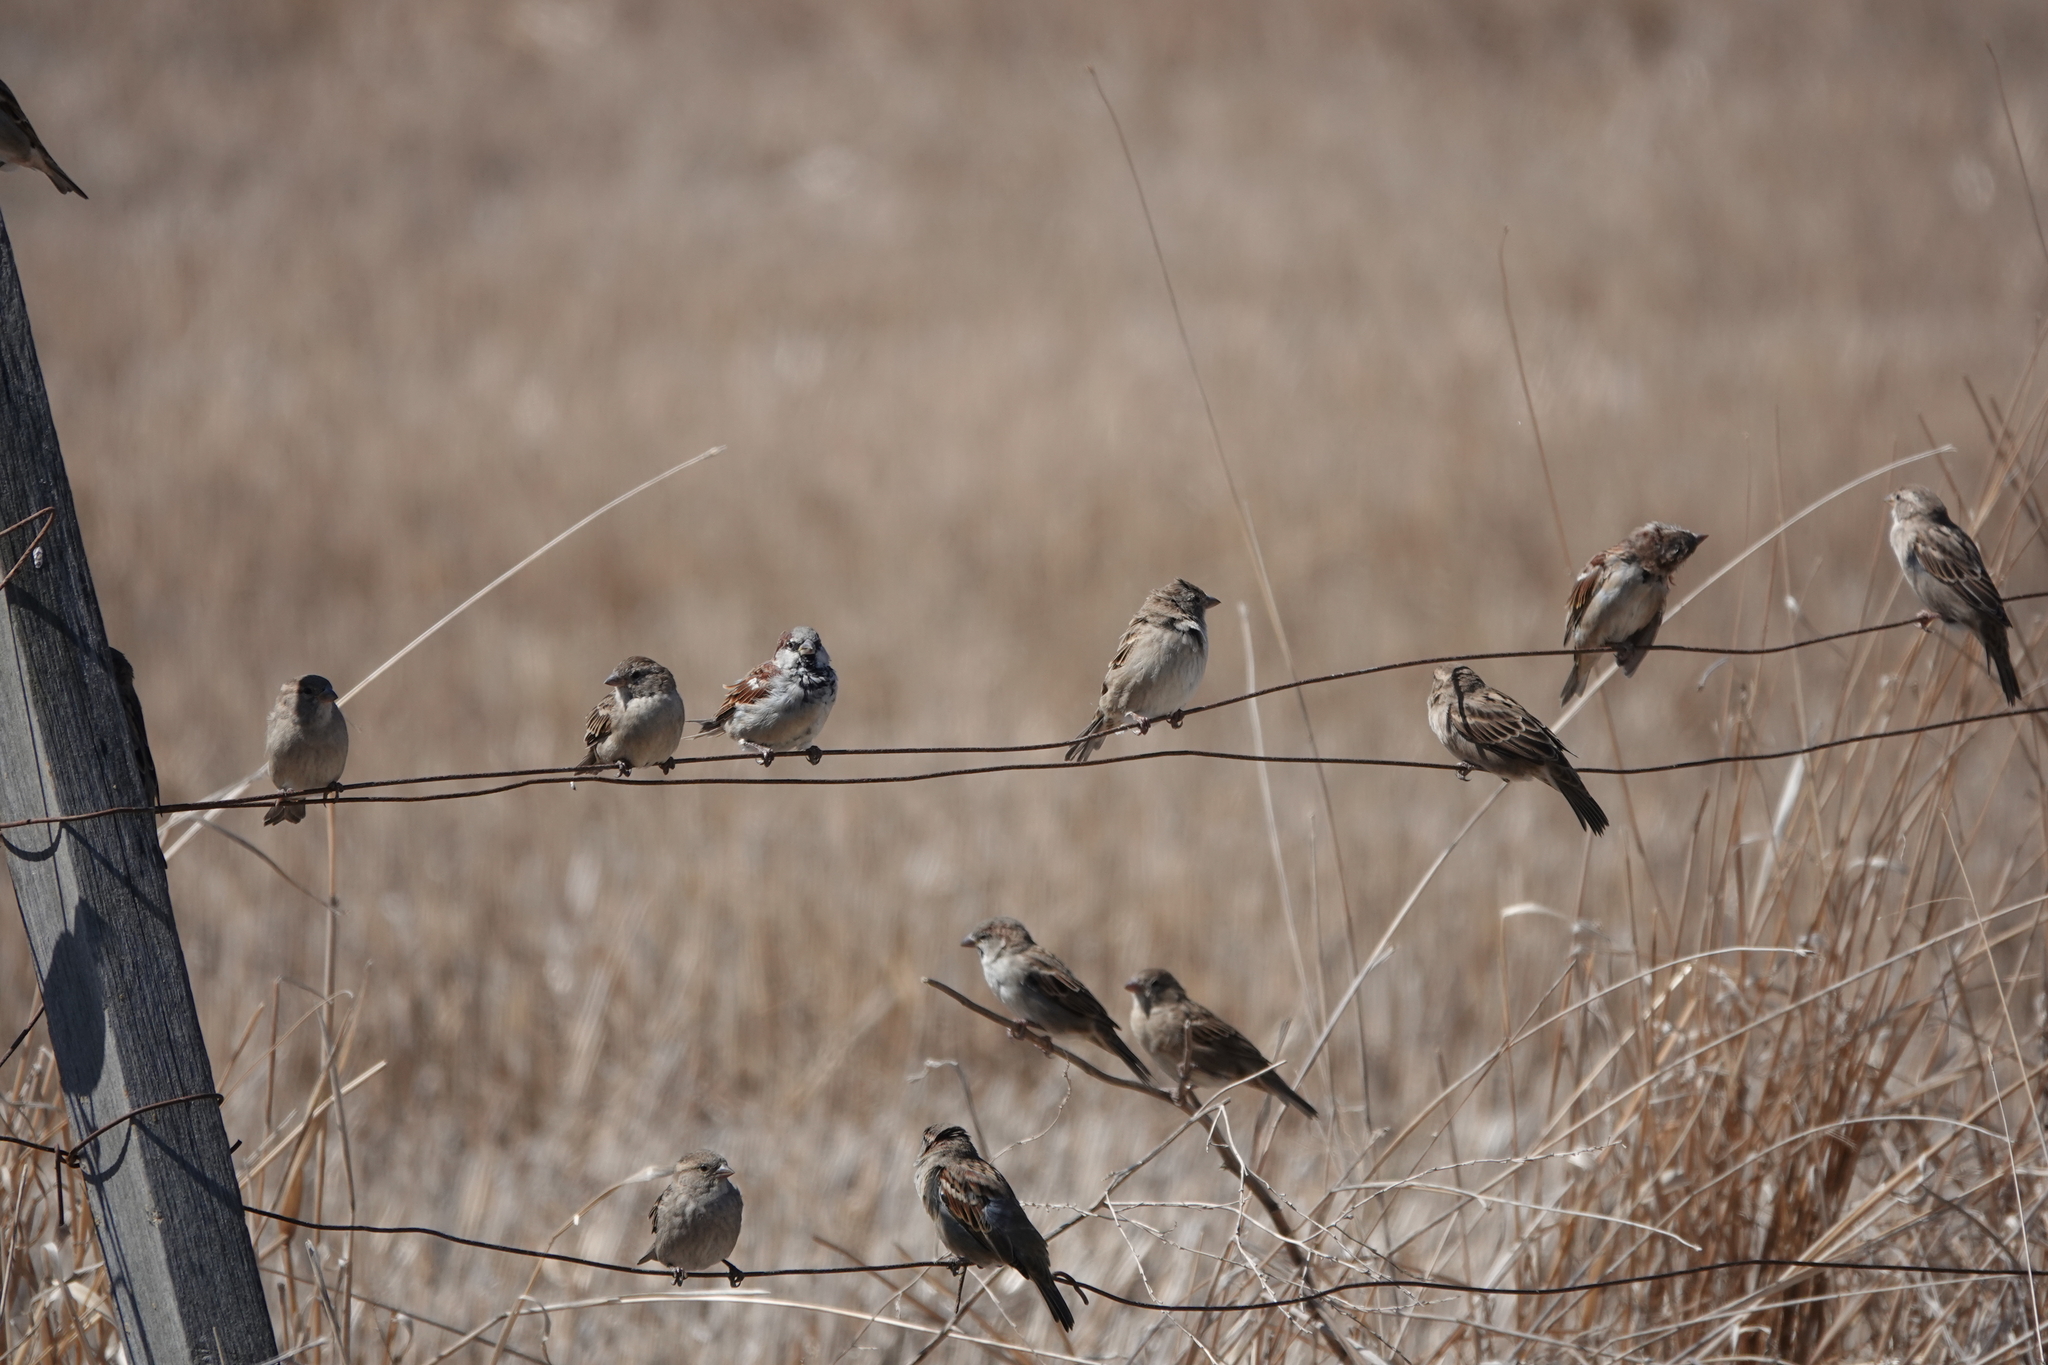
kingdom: Animalia
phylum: Chordata
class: Aves
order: Passeriformes
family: Passeridae
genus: Passer
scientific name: Passer domesticus
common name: House sparrow
